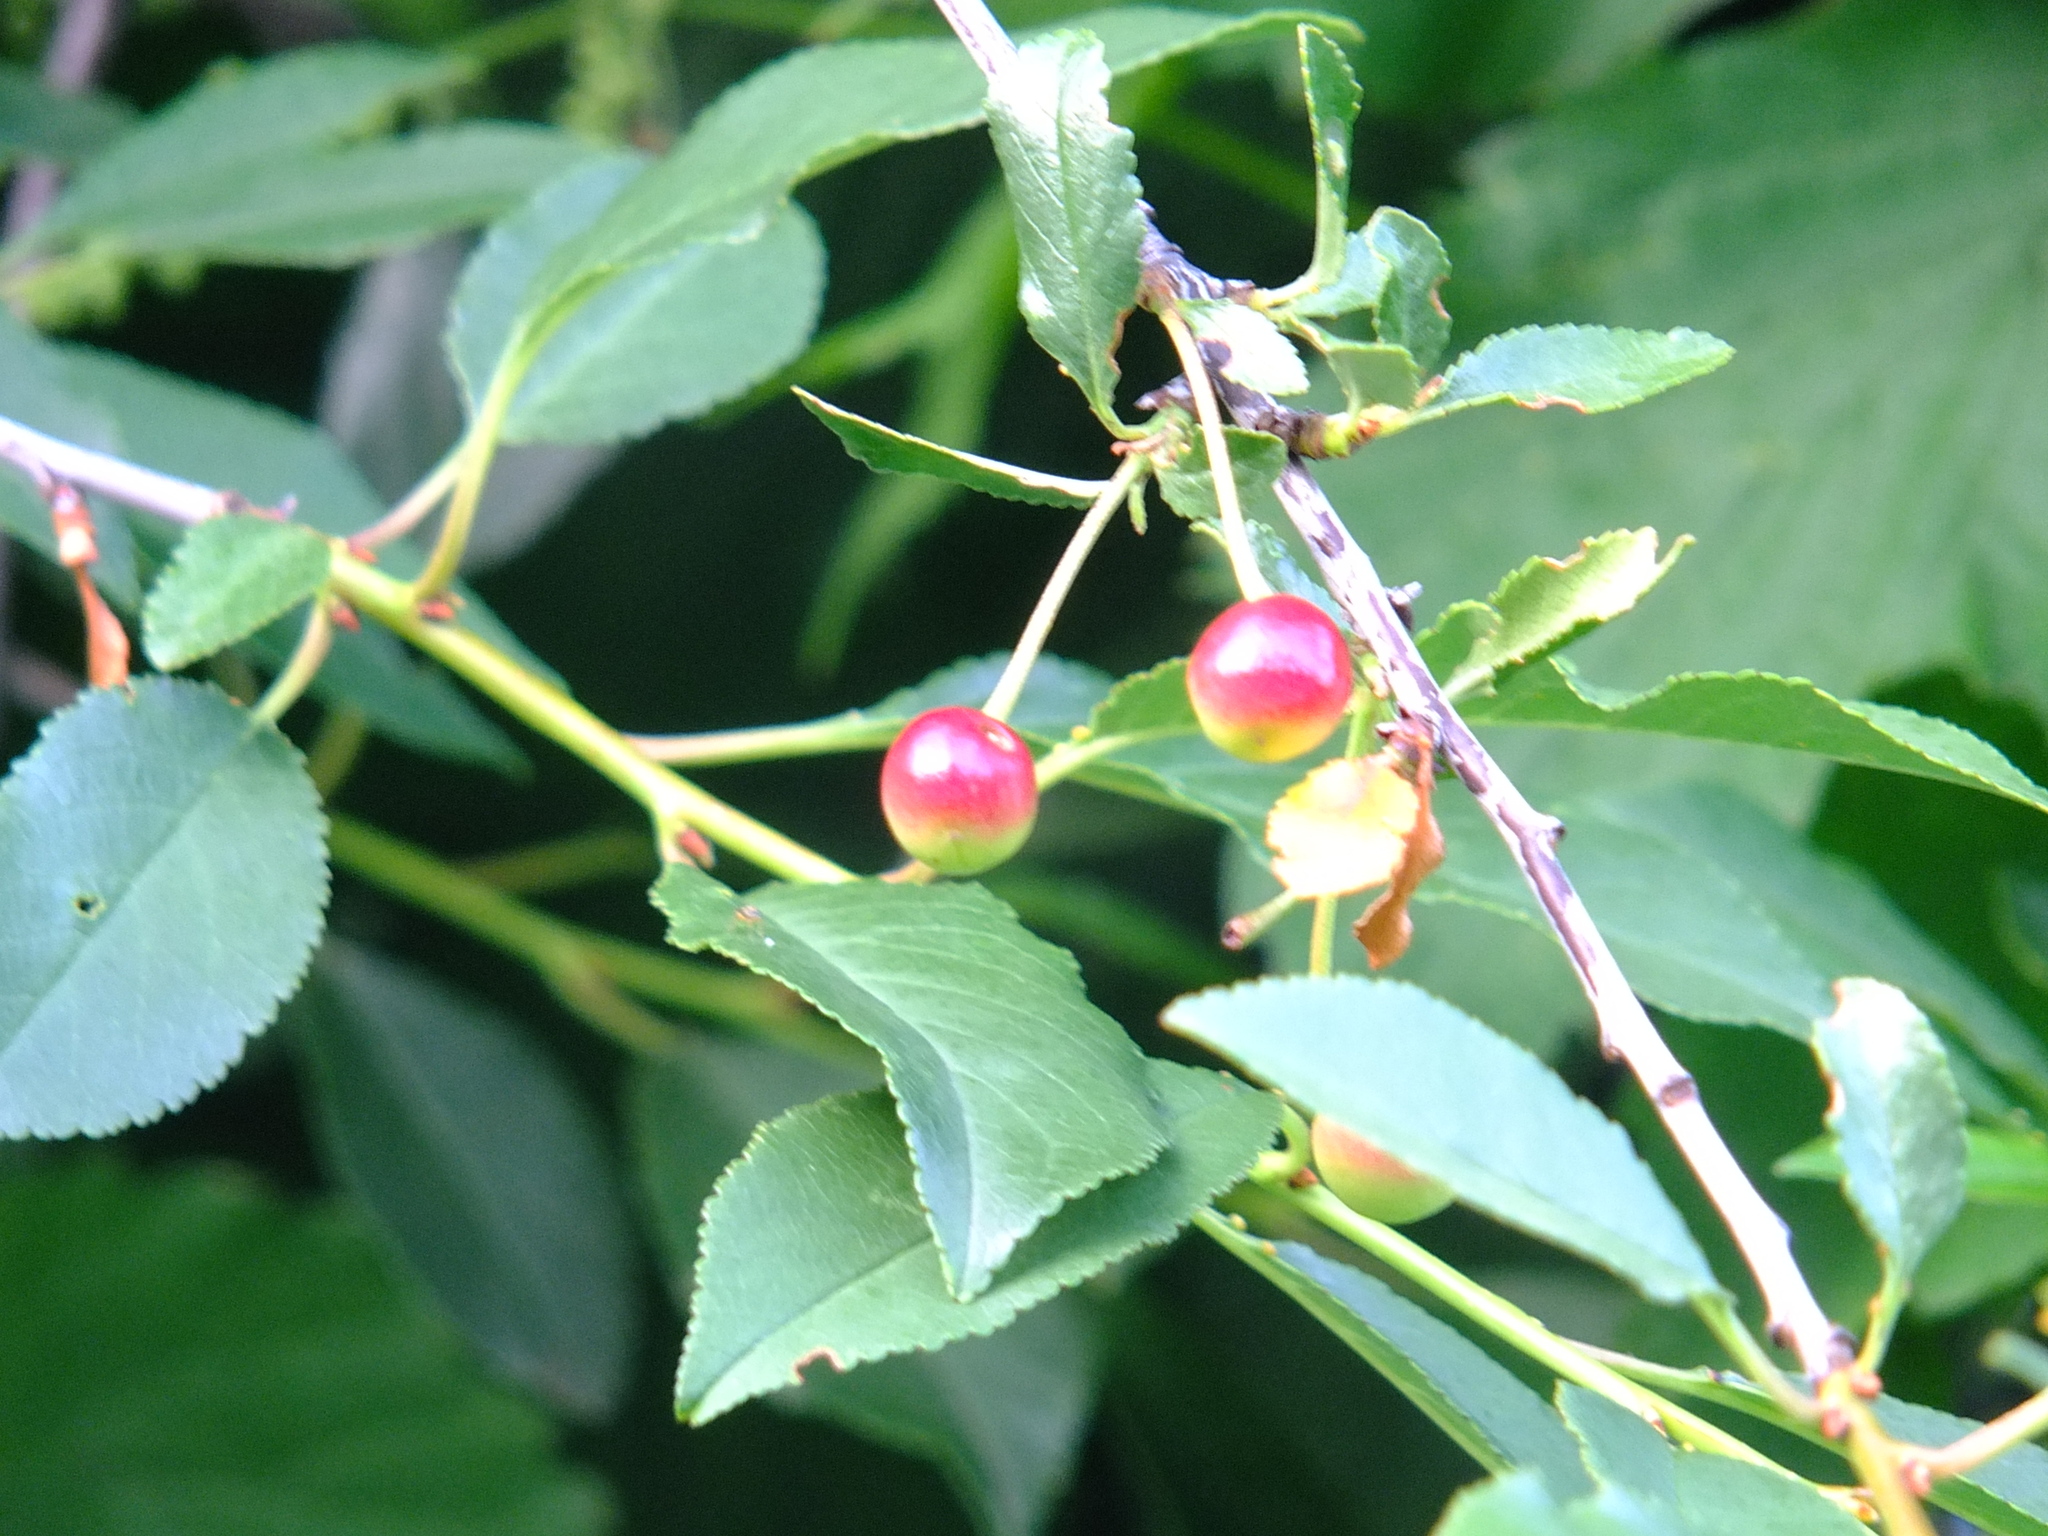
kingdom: Plantae
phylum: Tracheophyta
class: Magnoliopsida
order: Rosales
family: Rosaceae
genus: Prunus
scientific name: Prunus cerasus
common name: Morello cherry
